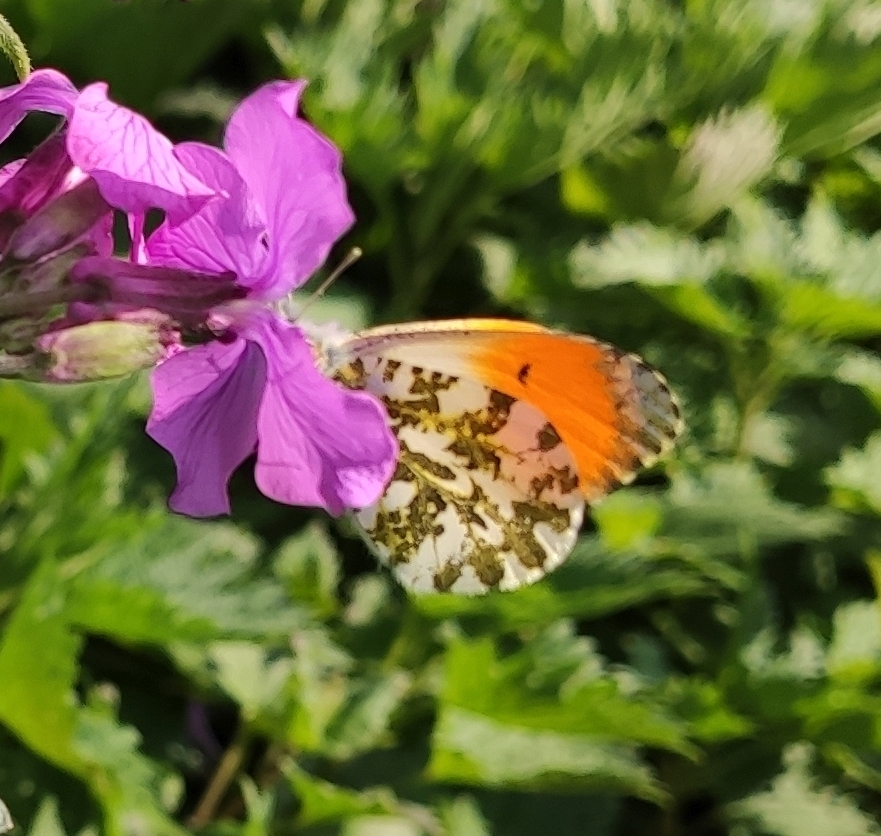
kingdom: Animalia
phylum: Arthropoda
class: Insecta
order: Lepidoptera
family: Pieridae
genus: Anthocharis
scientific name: Anthocharis cardamines
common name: Orange-tip
